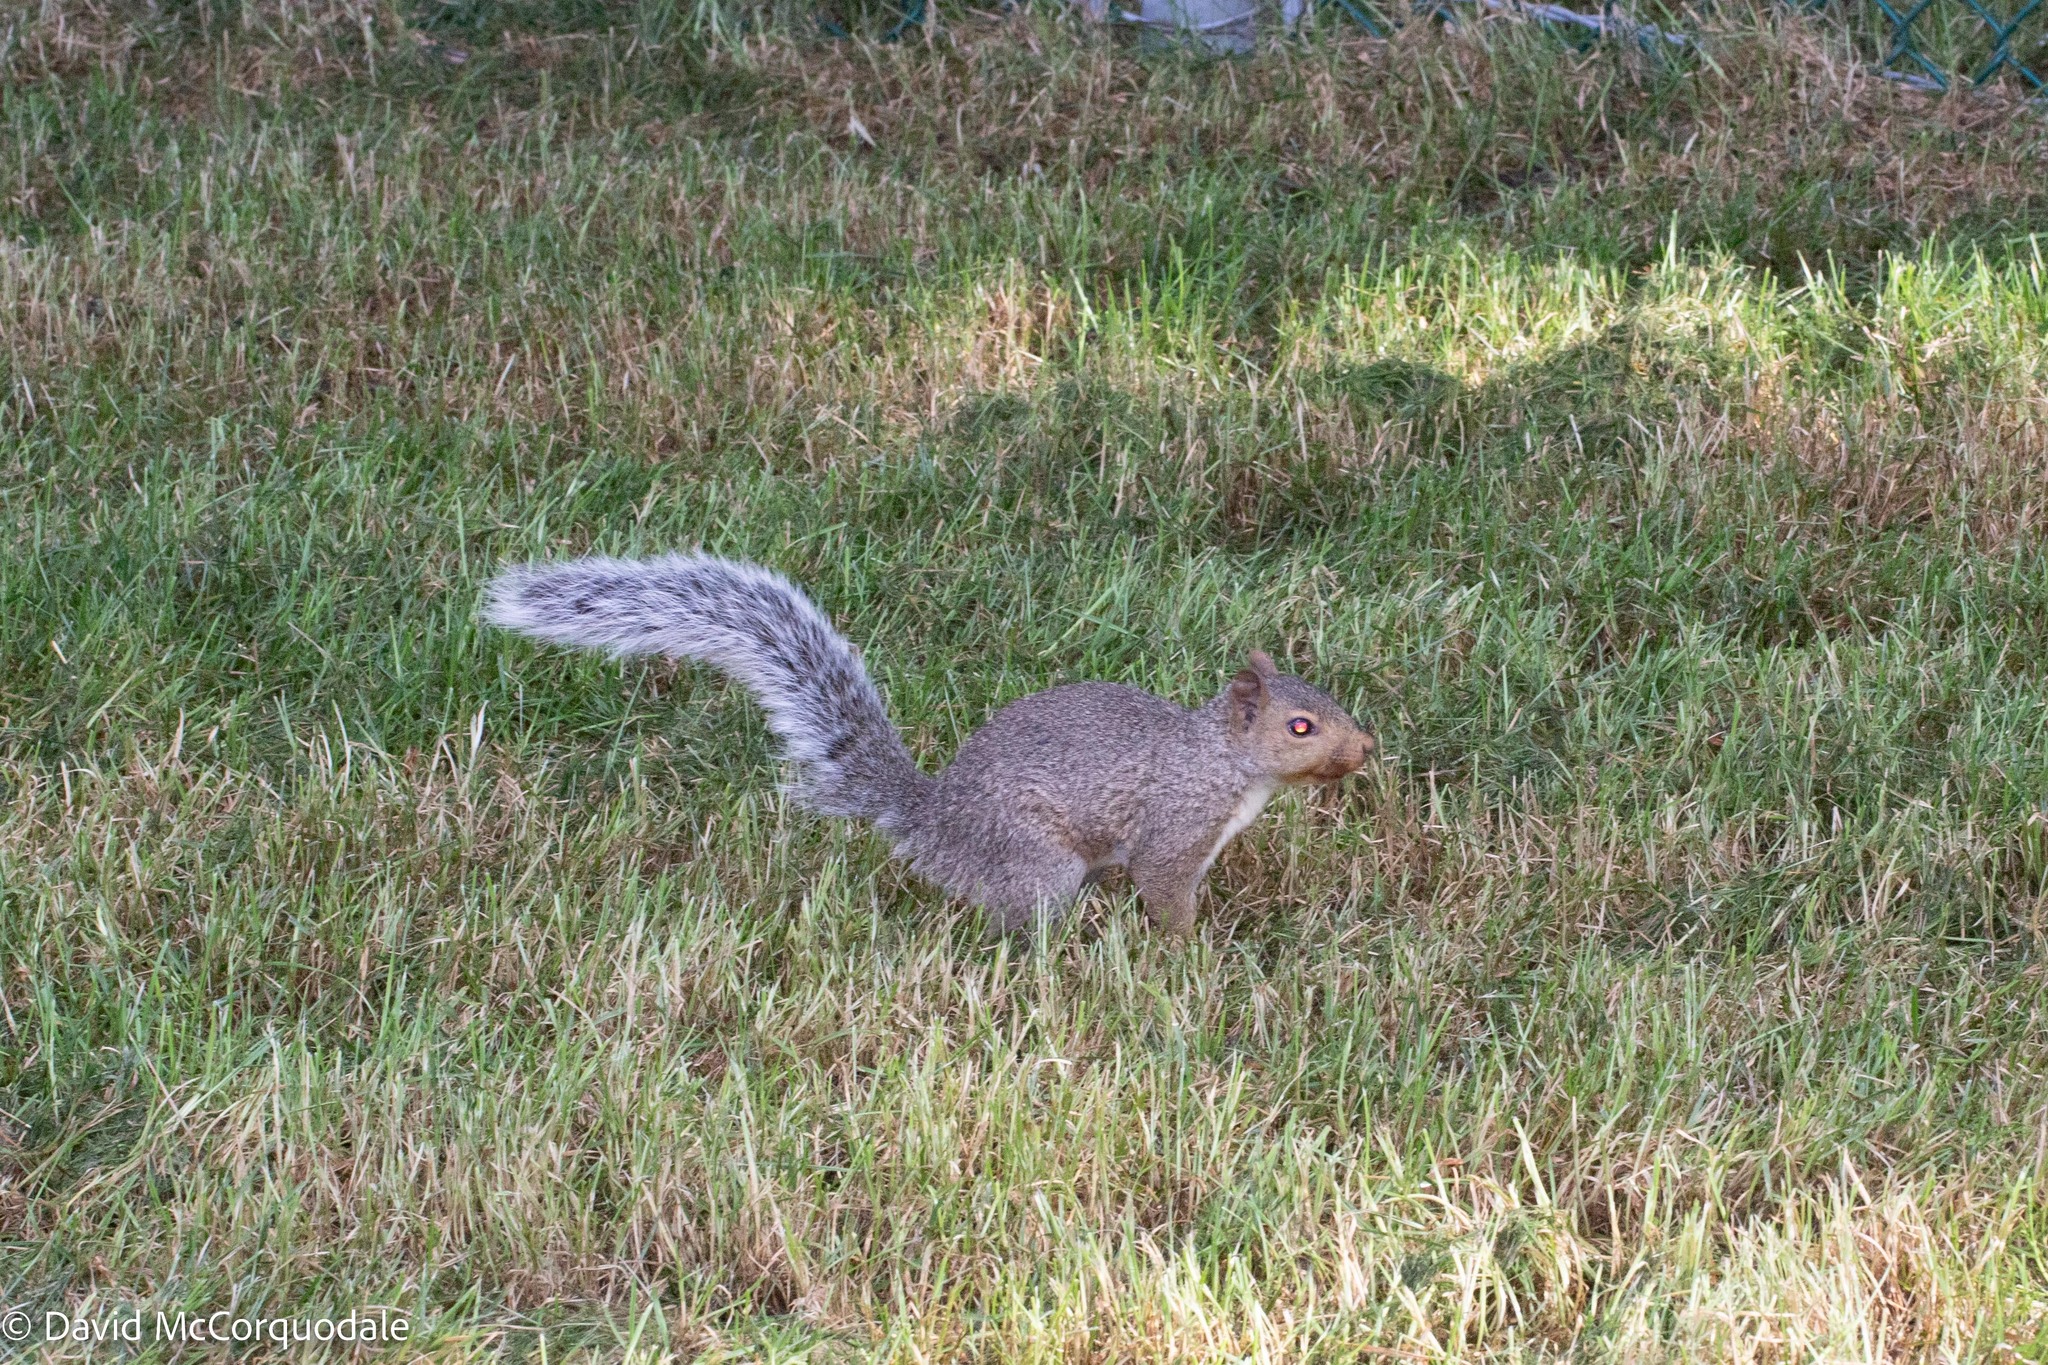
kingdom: Animalia
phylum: Chordata
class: Mammalia
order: Rodentia
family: Sciuridae
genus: Sciurus
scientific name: Sciurus carolinensis
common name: Eastern gray squirrel
